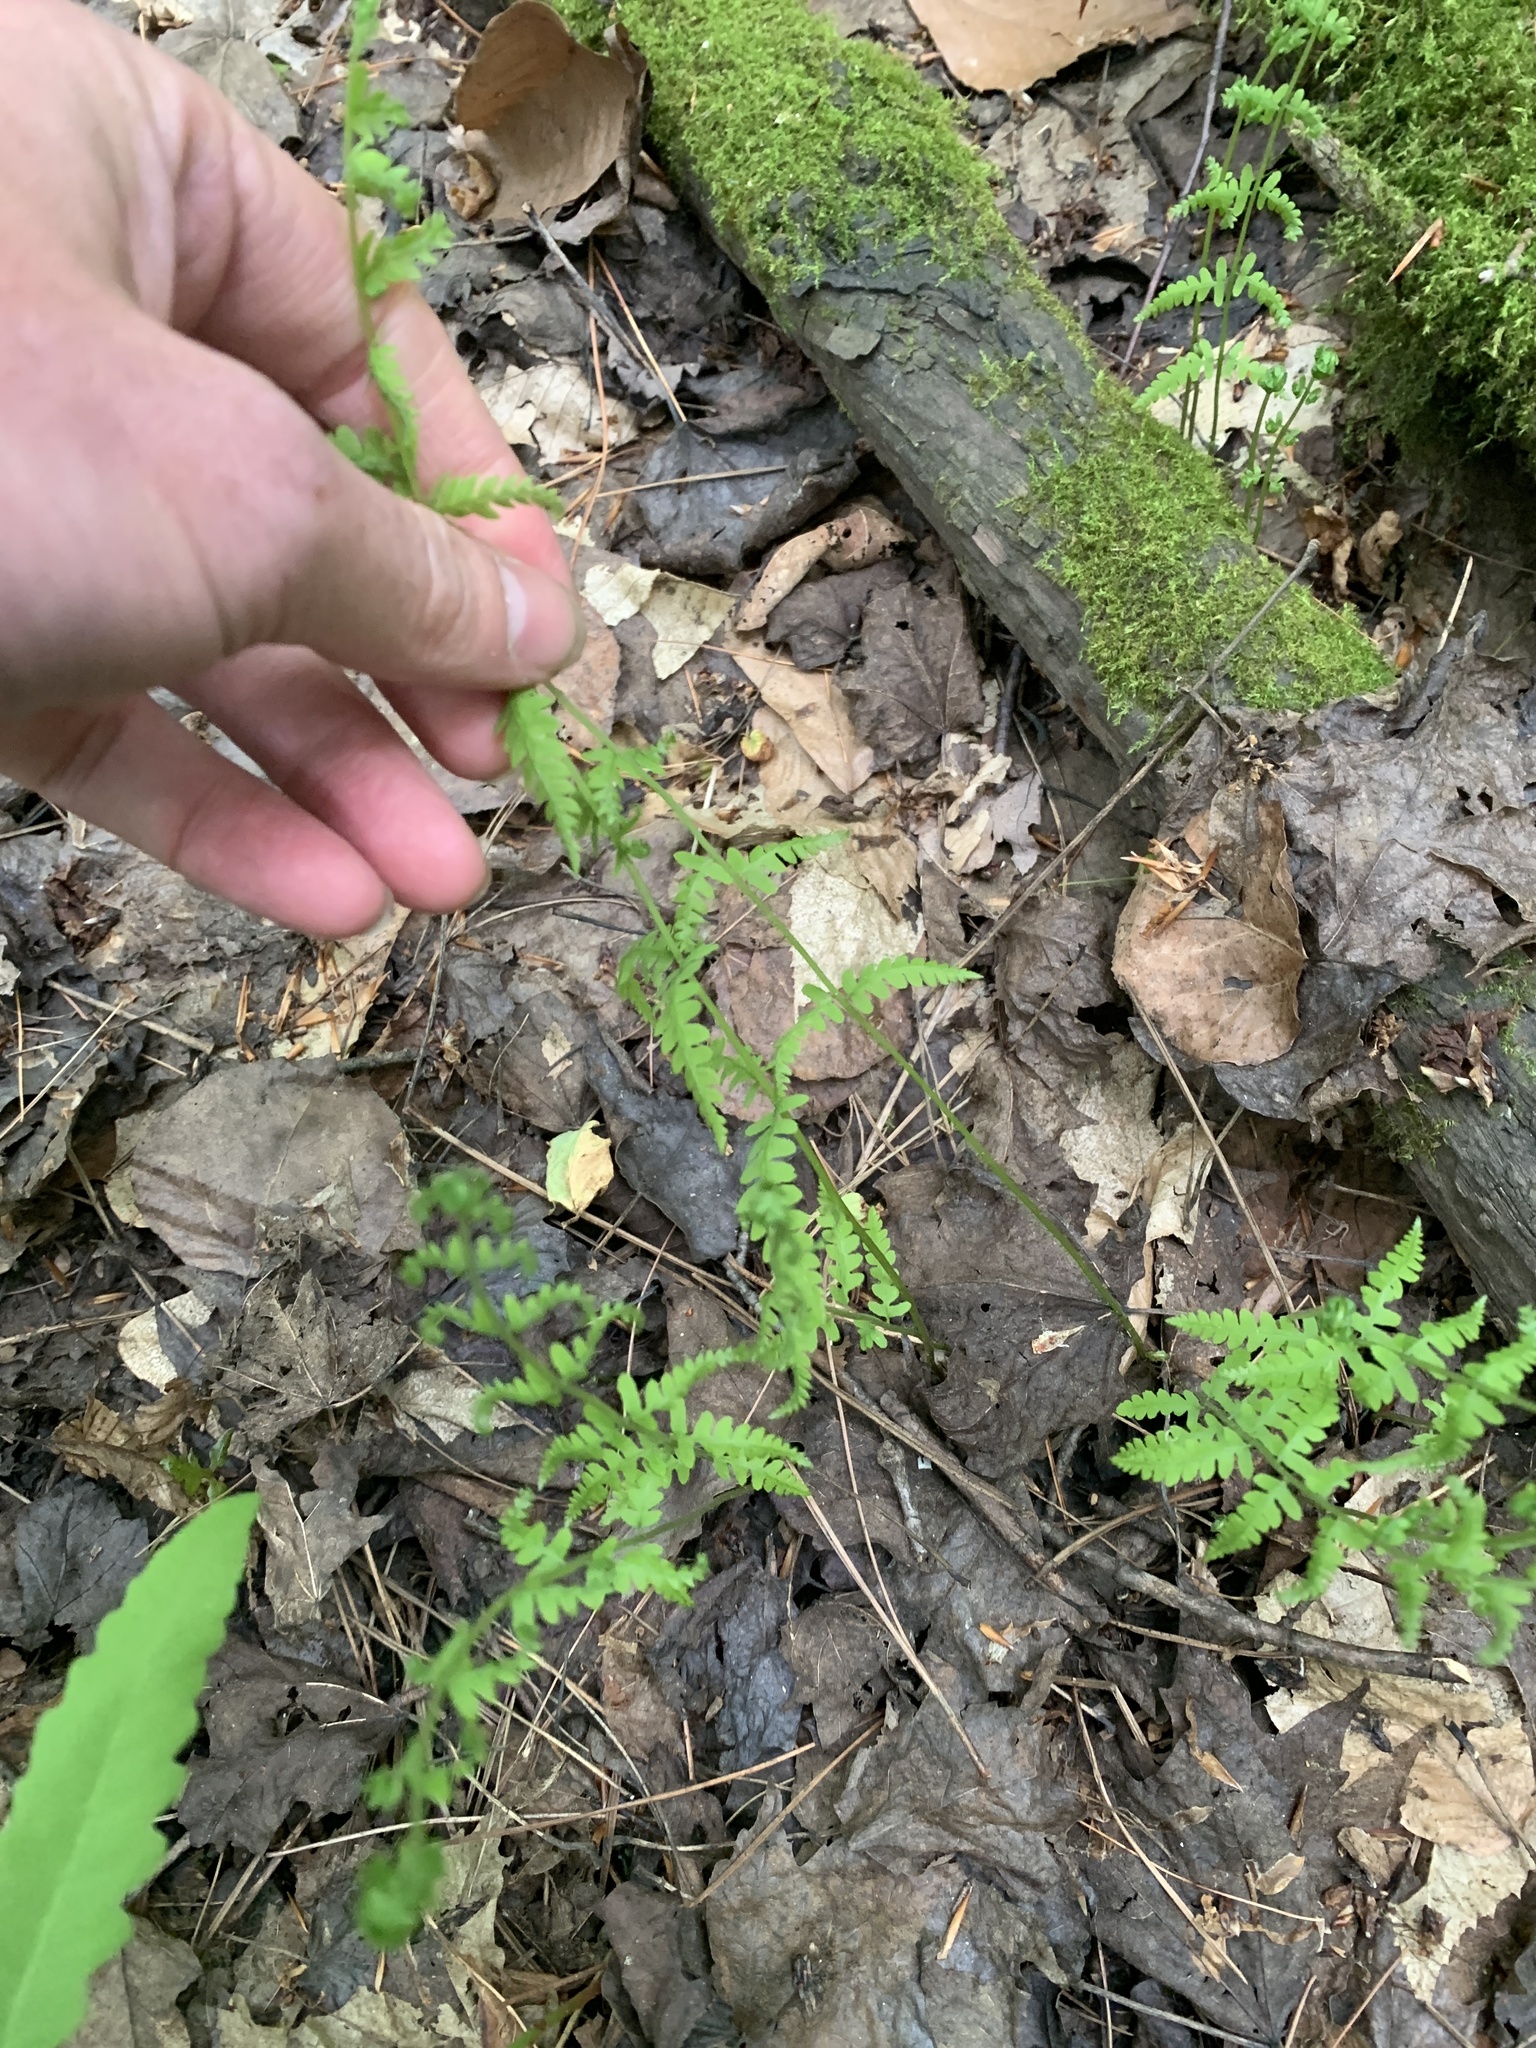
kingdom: Plantae
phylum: Tracheophyta
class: Polypodiopsida
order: Polypodiales
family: Thelypteridaceae
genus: Thelypteris
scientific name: Thelypteris palustris
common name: Marsh fern
